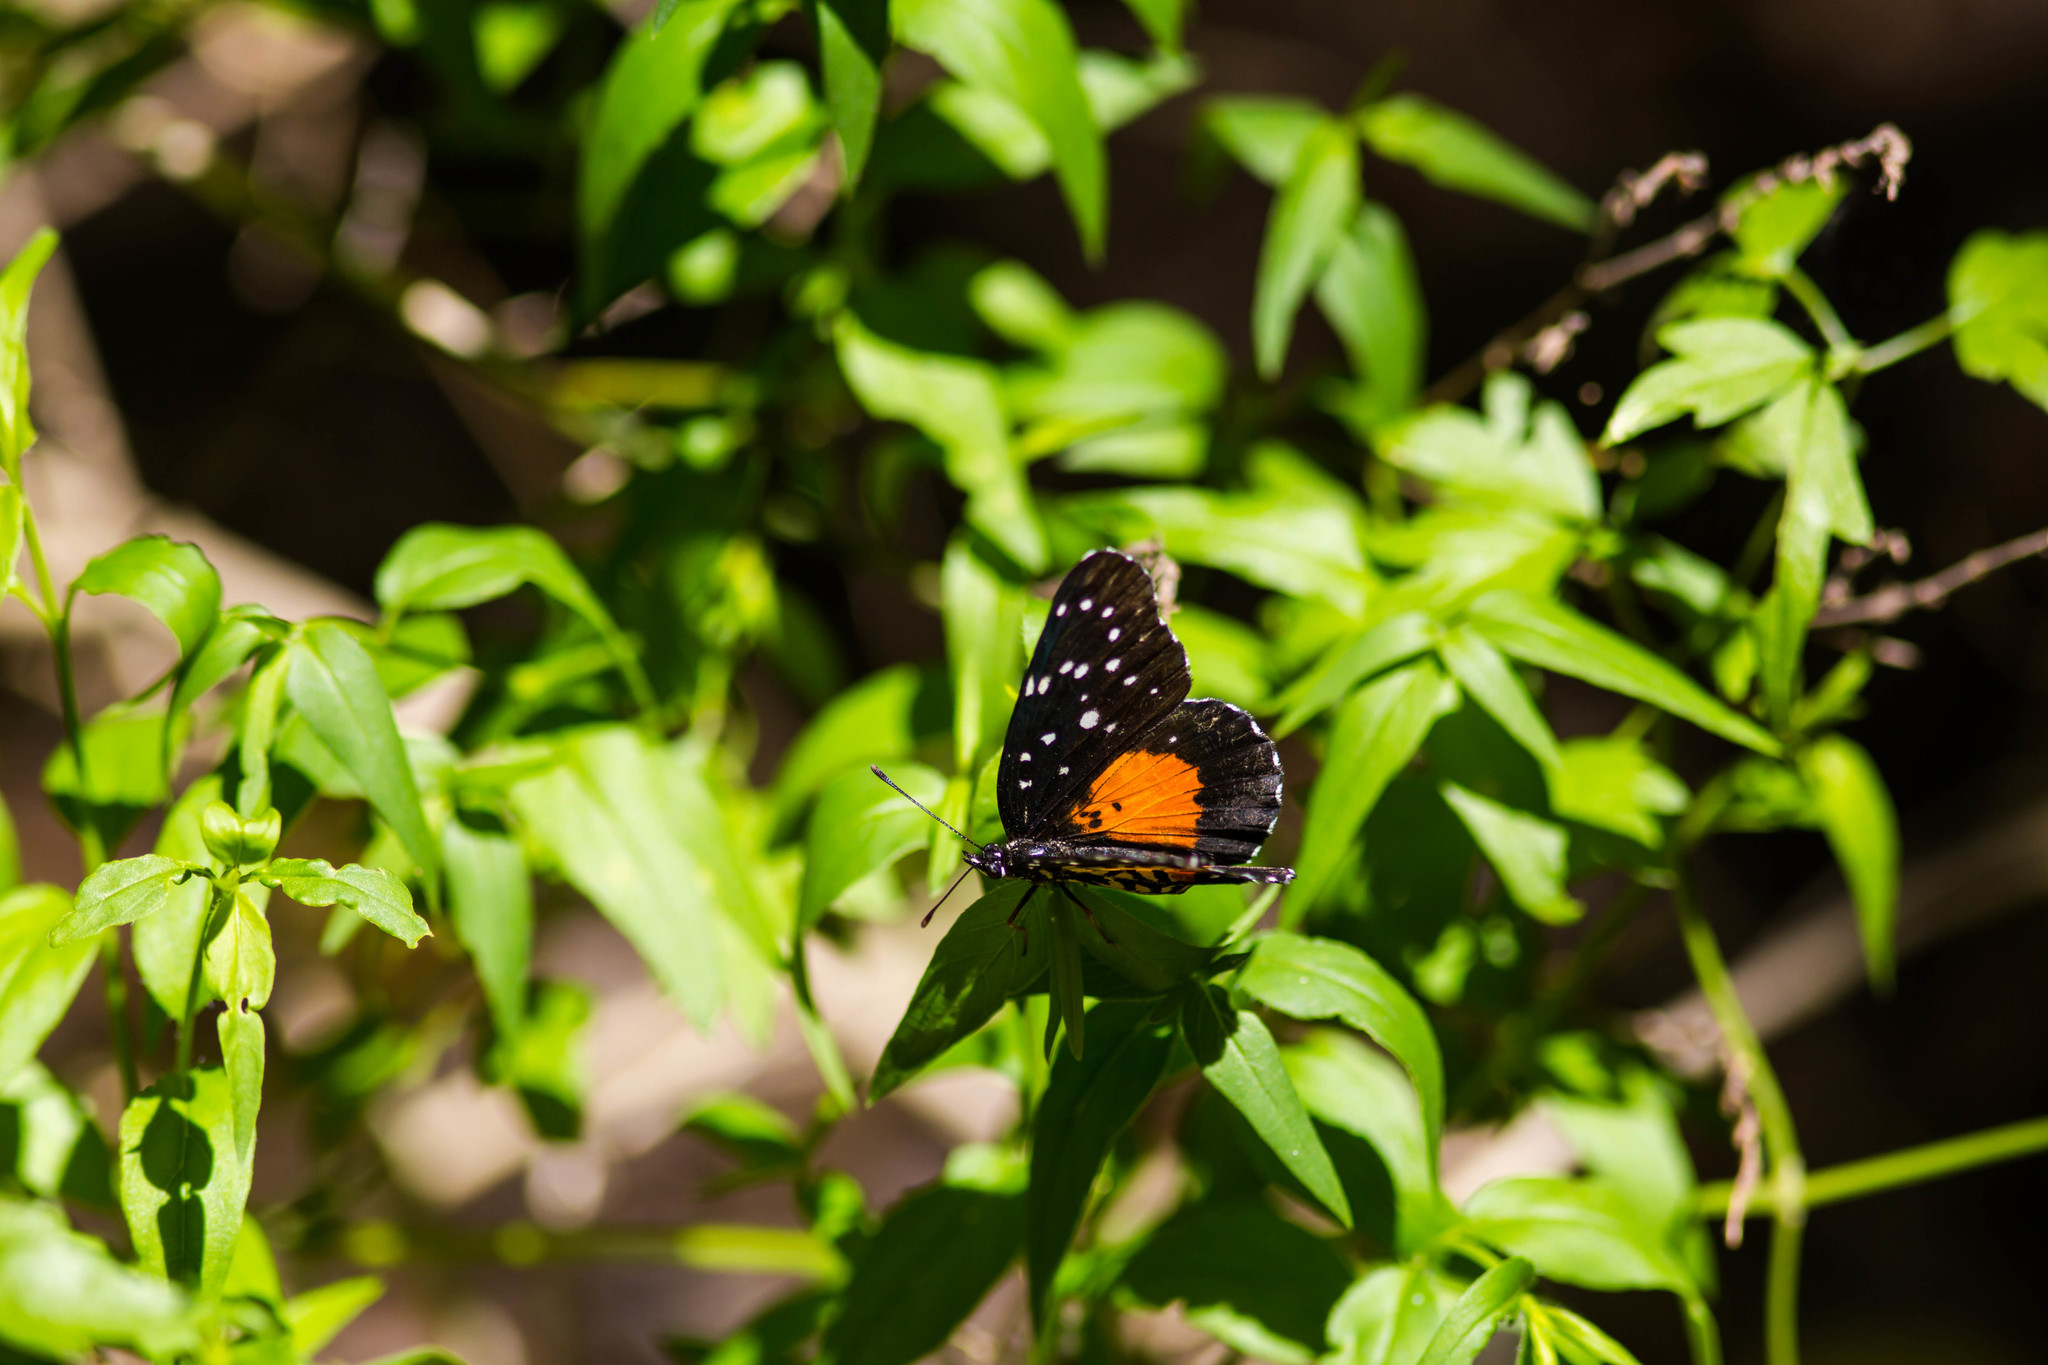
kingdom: Animalia
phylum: Arthropoda
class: Insecta
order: Lepidoptera
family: Nymphalidae
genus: Chlosyne
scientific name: Chlosyne janais
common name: Crimson patch
